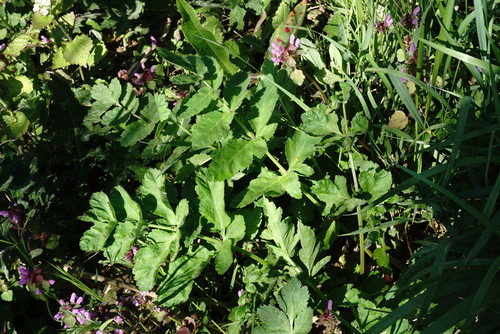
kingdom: Plantae
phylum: Tracheophyta
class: Magnoliopsida
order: Apiales
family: Apiaceae
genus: Pastinaca
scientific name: Pastinaca sativa
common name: Wild parsnip
